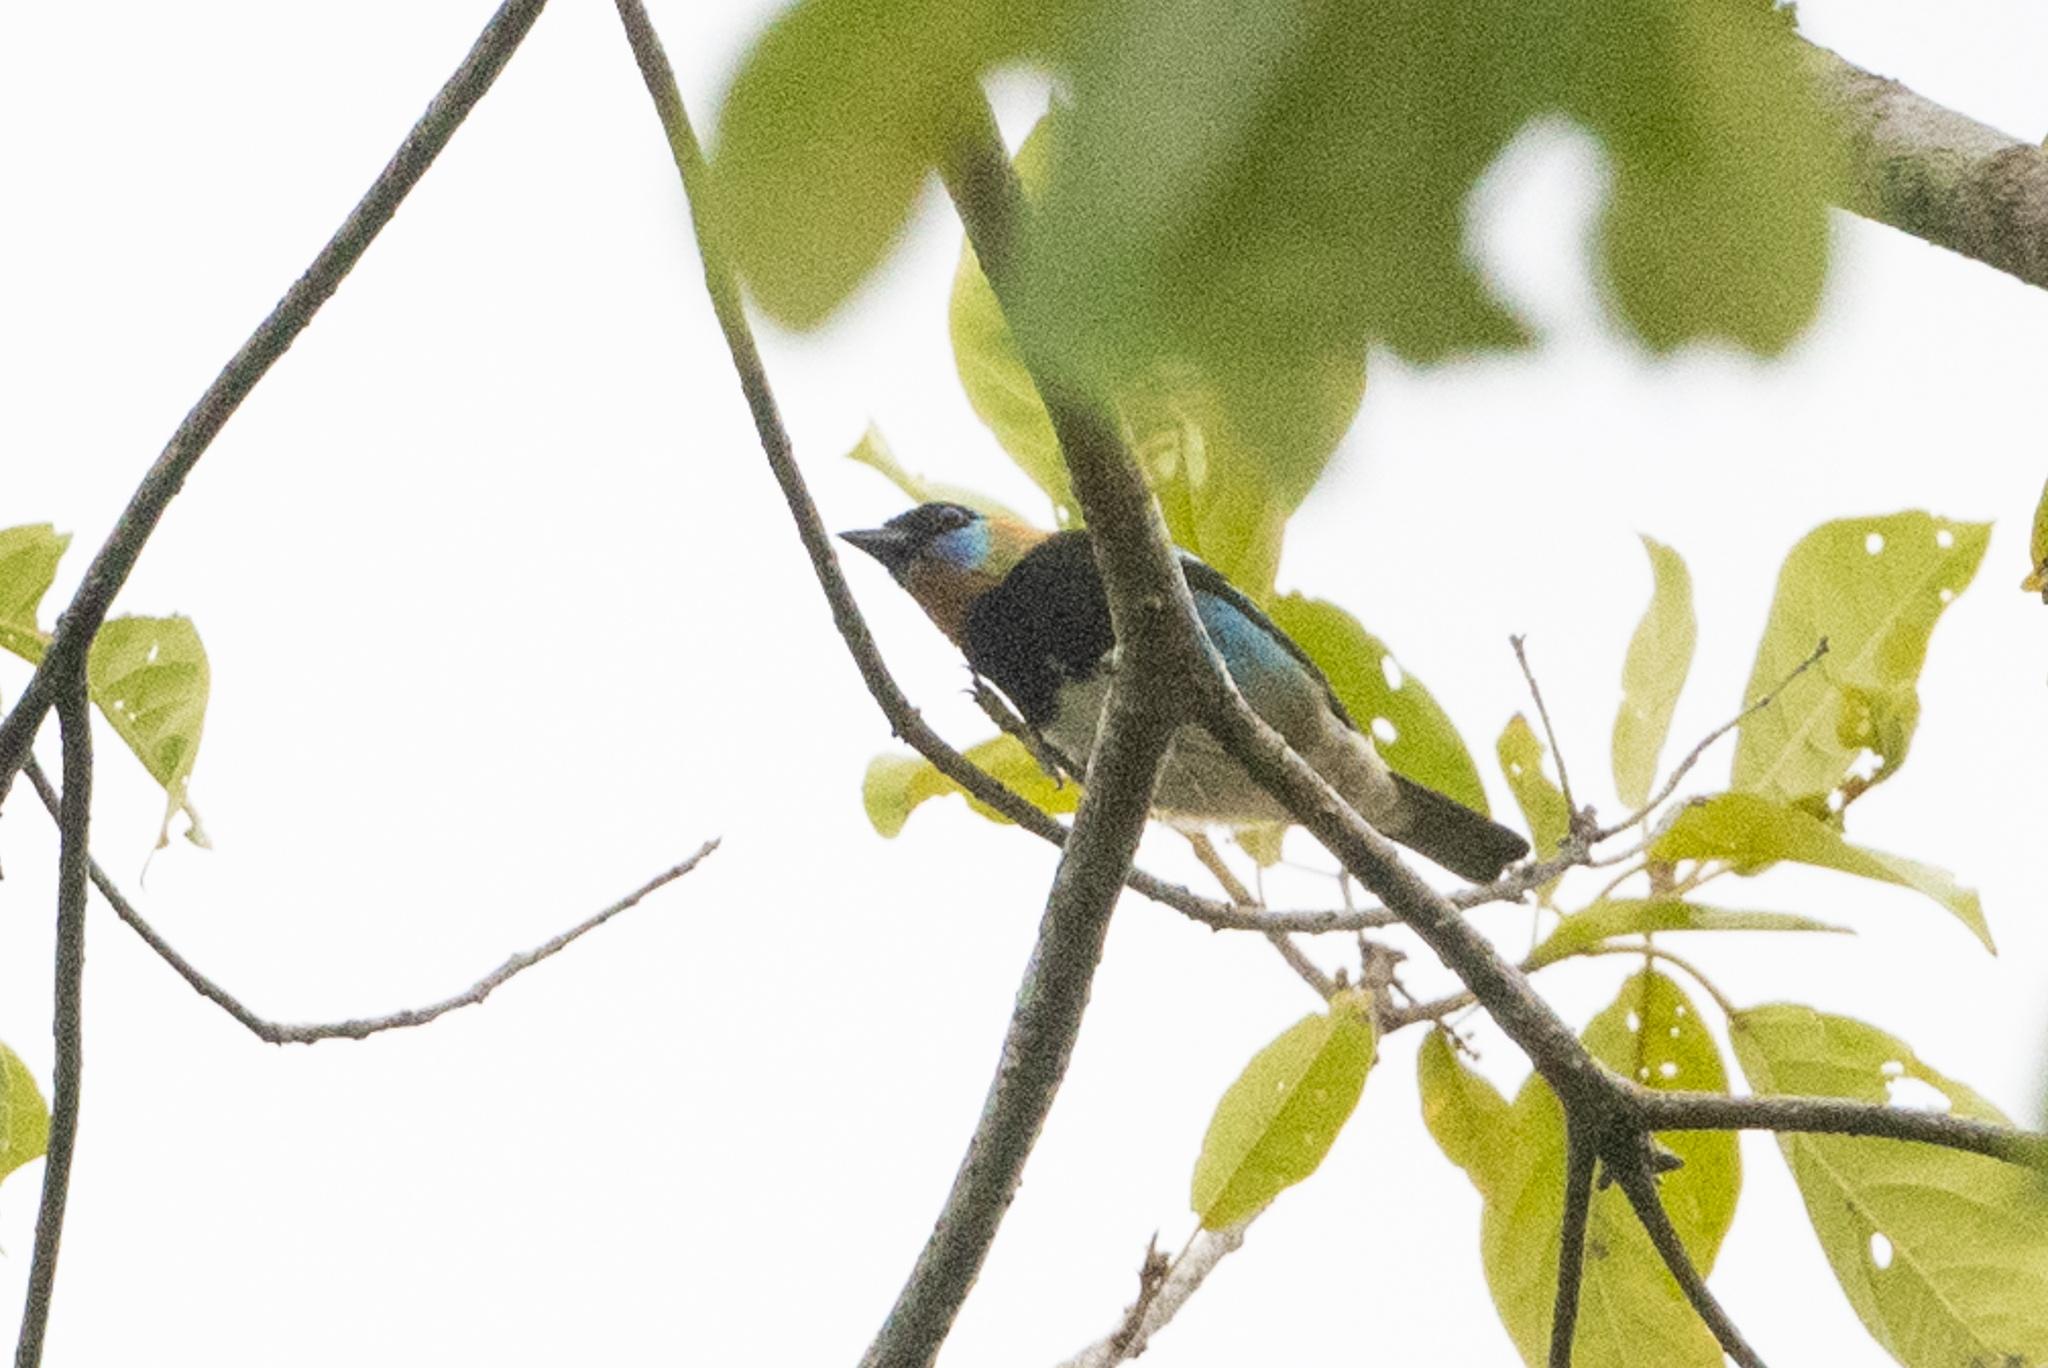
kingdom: Animalia
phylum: Chordata
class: Aves
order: Passeriformes
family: Thraupidae
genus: Stilpnia
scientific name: Stilpnia larvata
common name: Golden-hooded tanager
